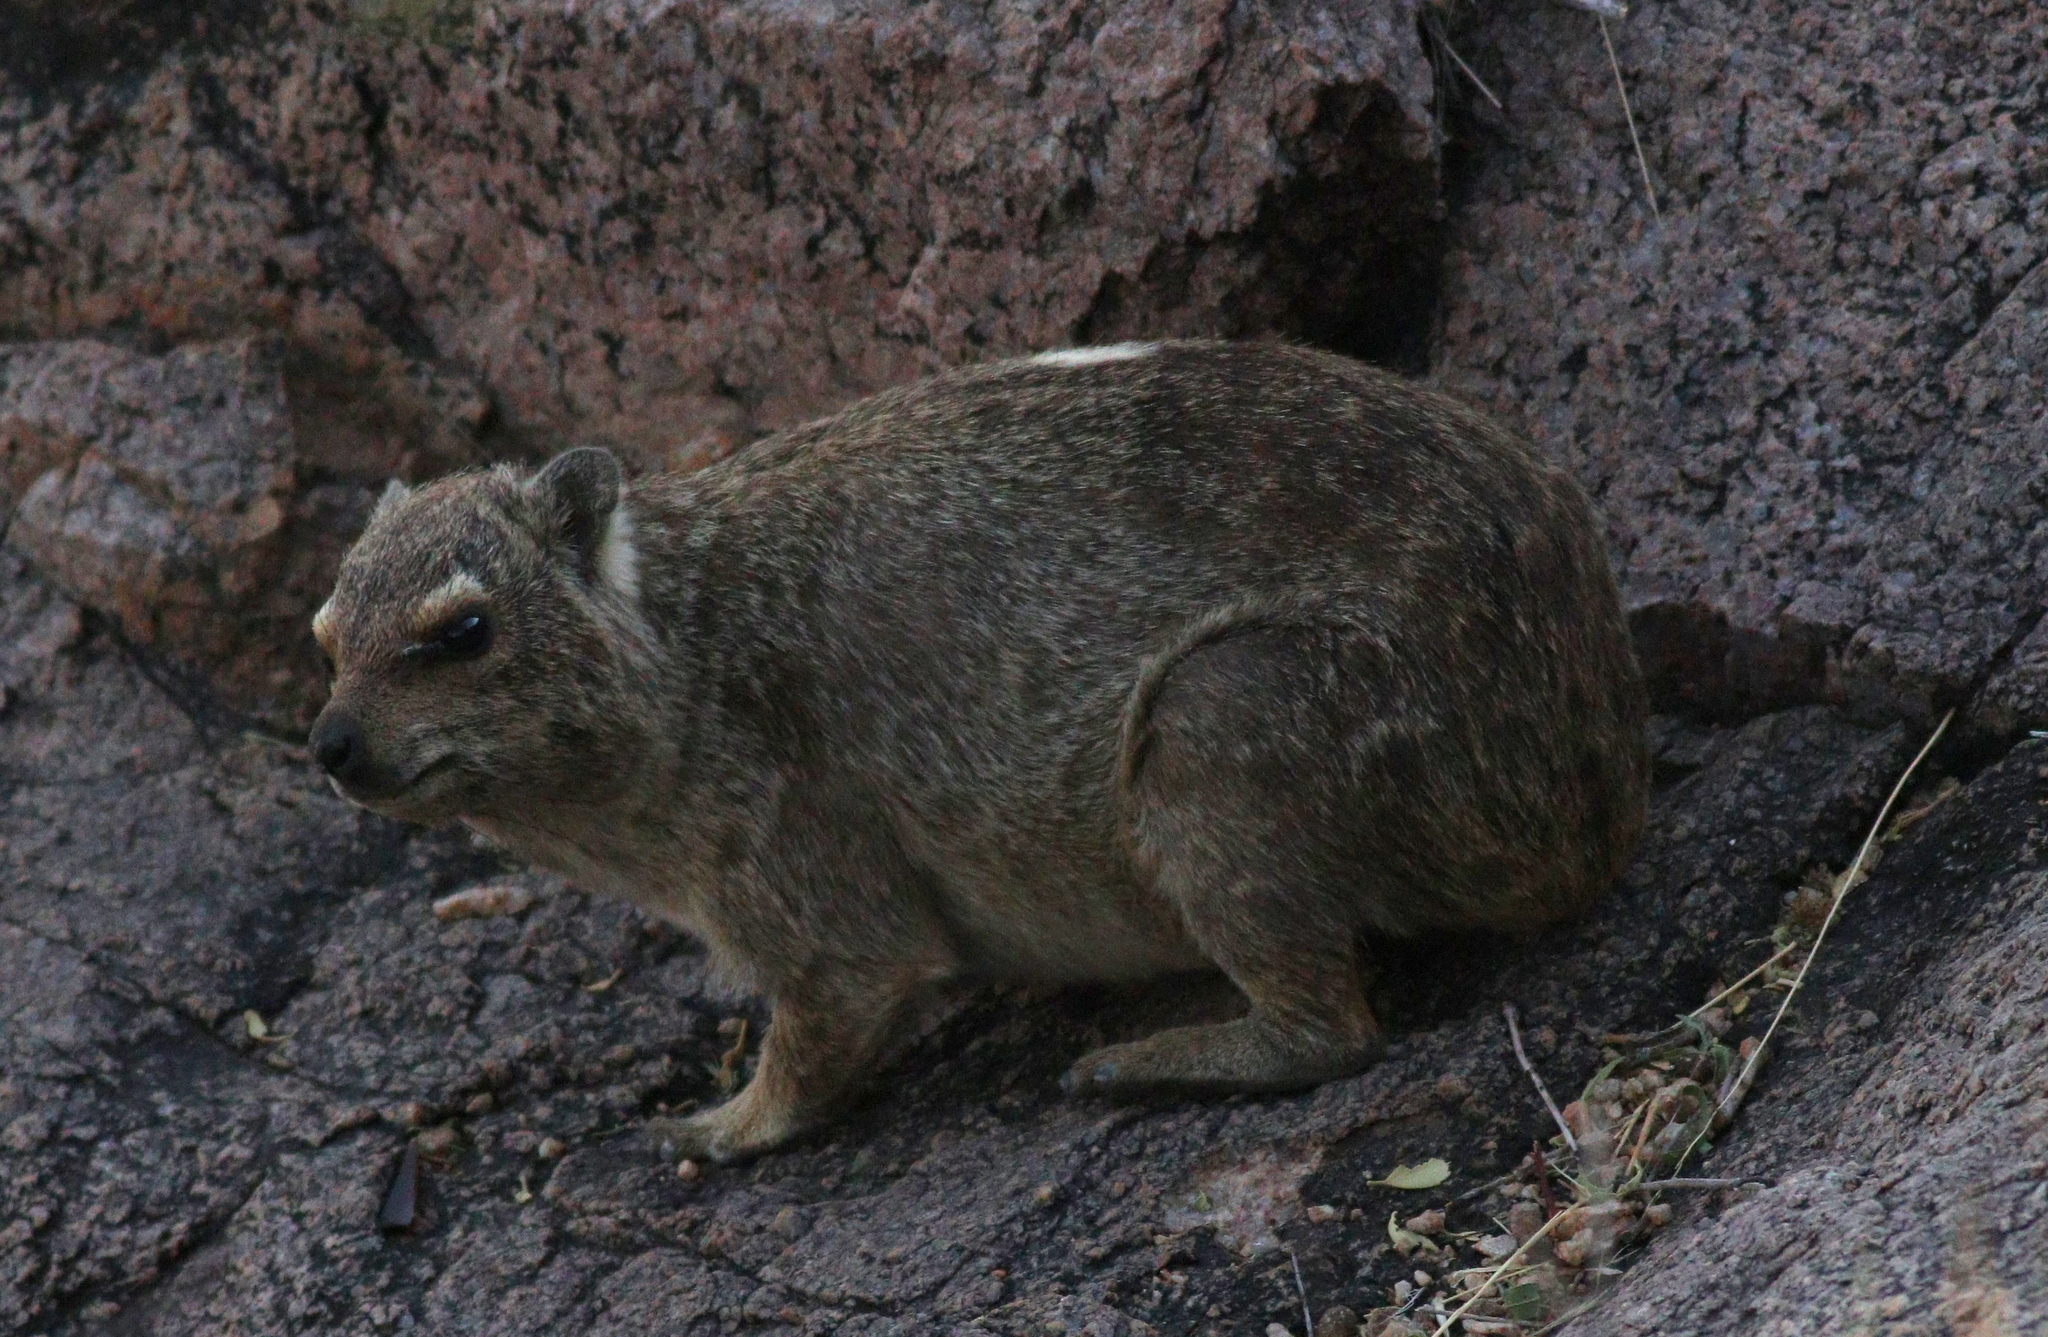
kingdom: Animalia
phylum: Chordata
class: Mammalia
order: Hyracoidea
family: Procaviidae
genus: Procavia
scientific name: Procavia capensis
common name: Rock hyrax
